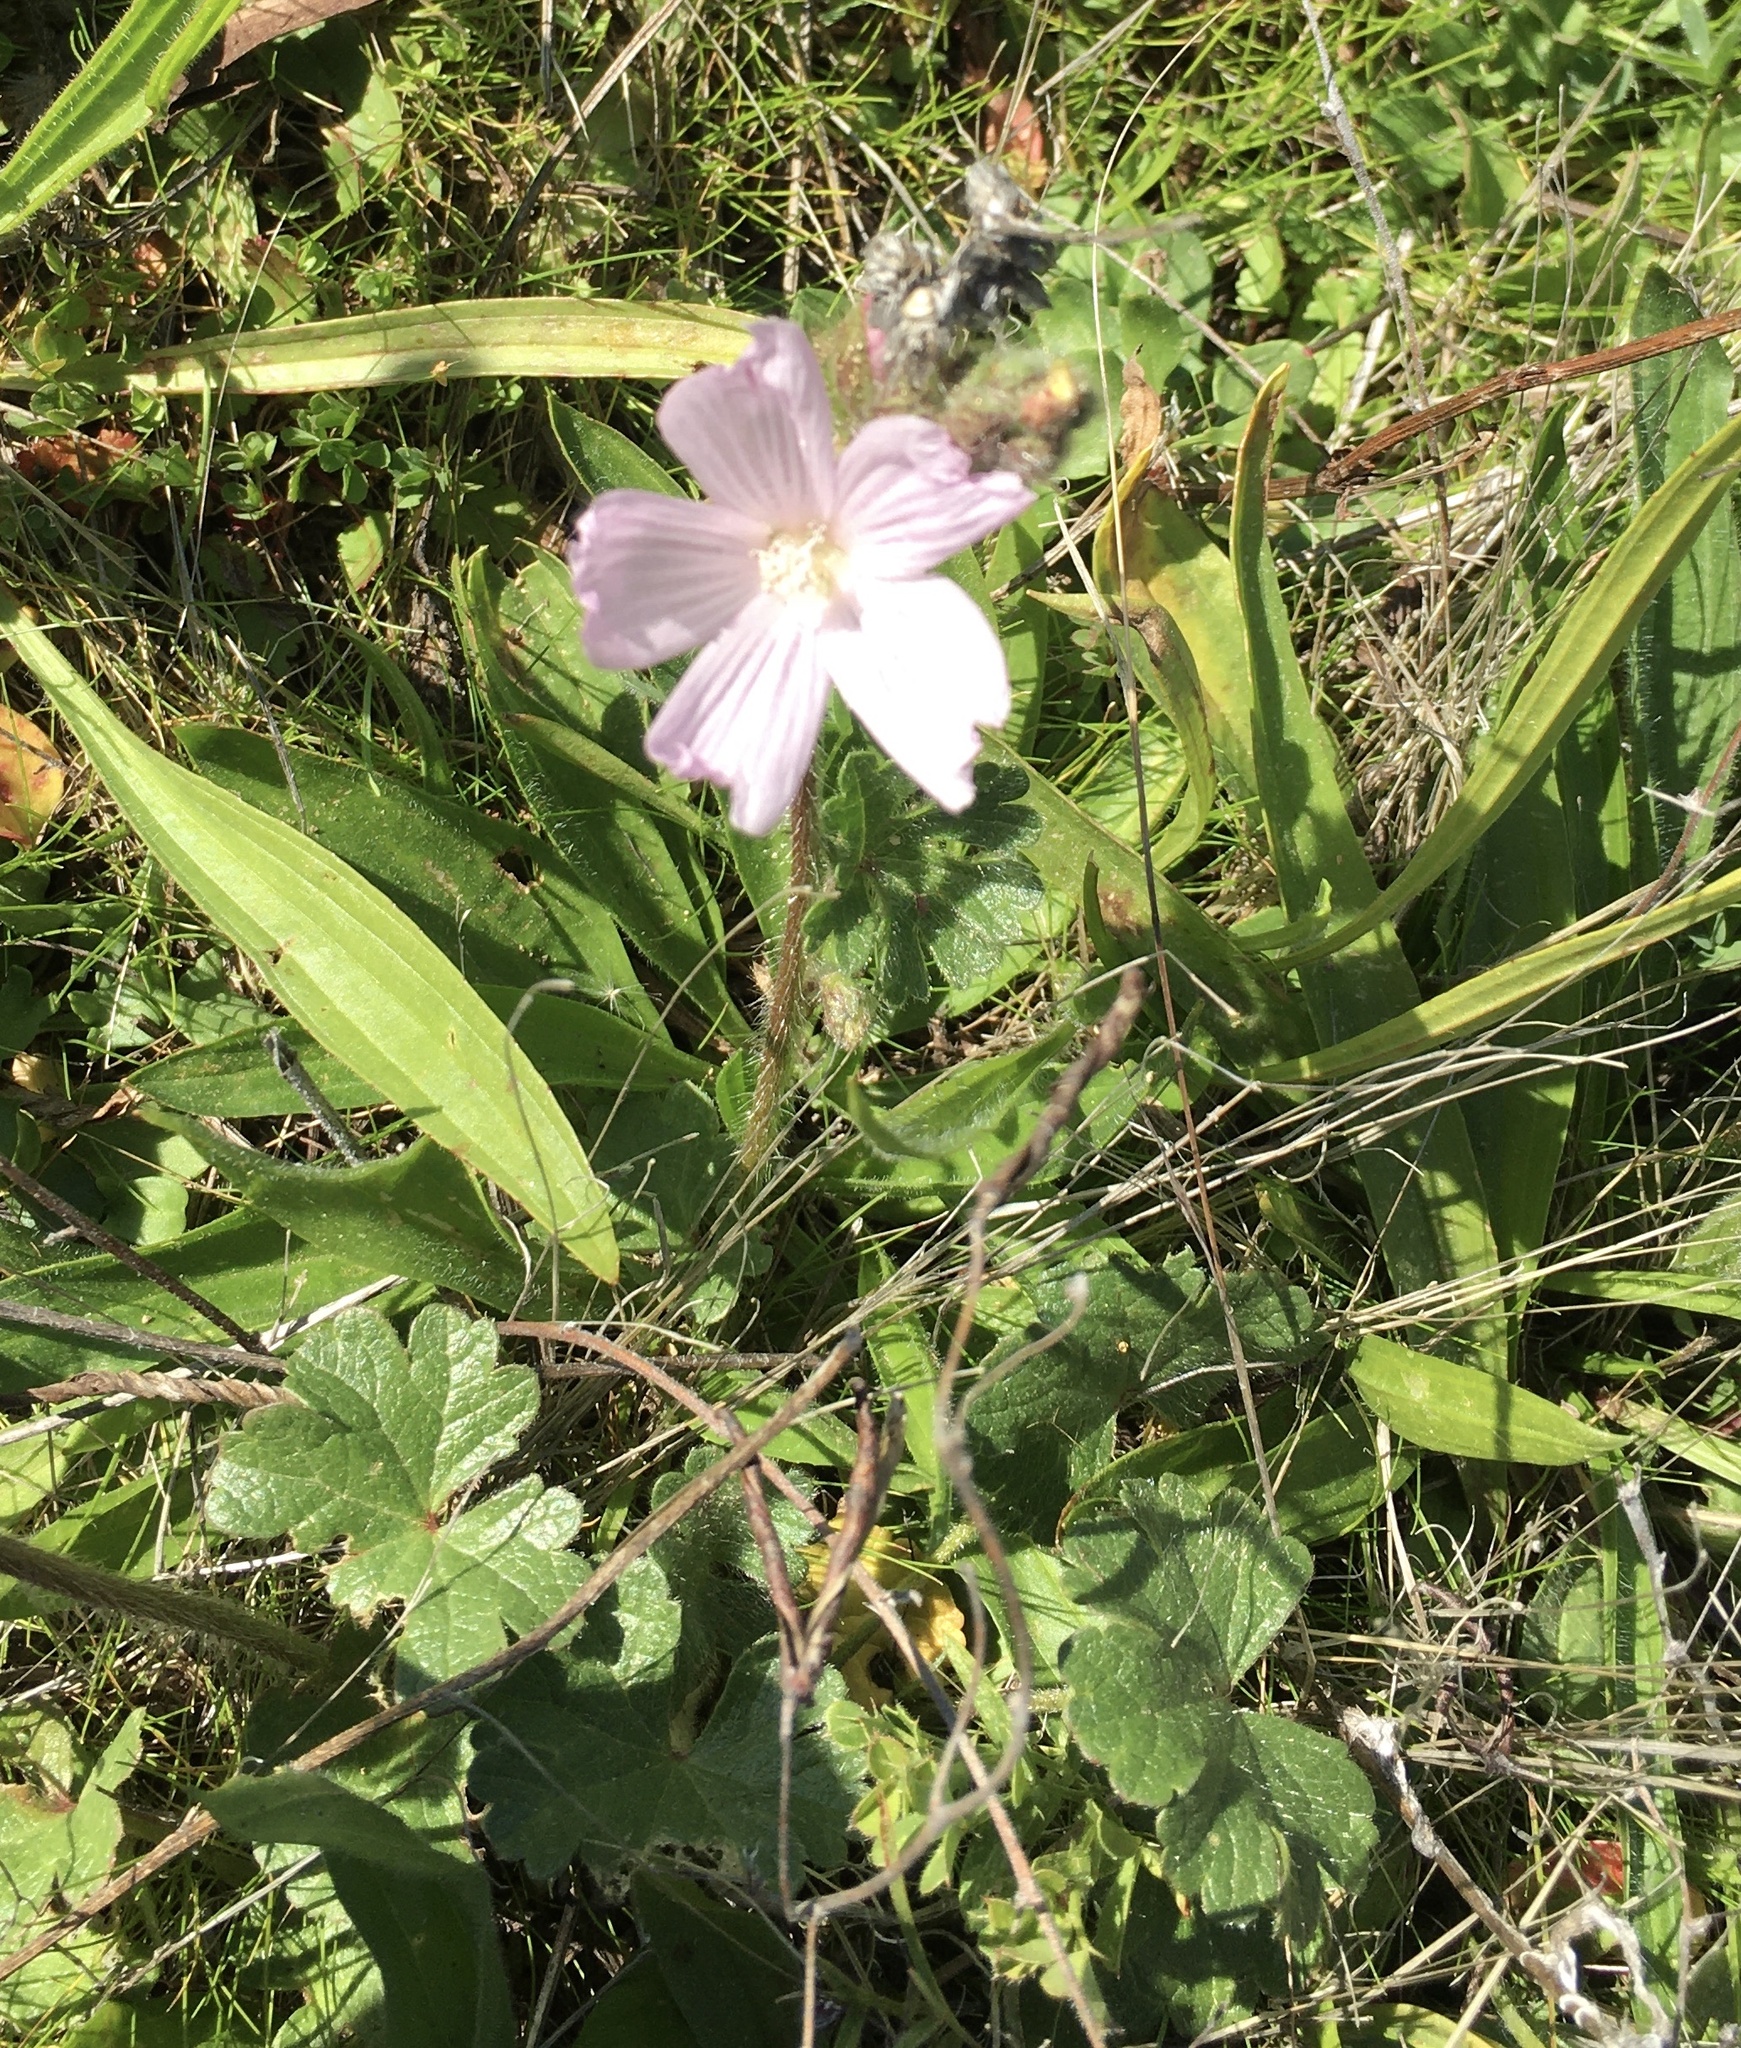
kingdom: Plantae
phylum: Tracheophyta
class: Magnoliopsida
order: Malvales
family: Malvaceae
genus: Sidalcea
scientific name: Sidalcea malviflora
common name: Greek mallow
